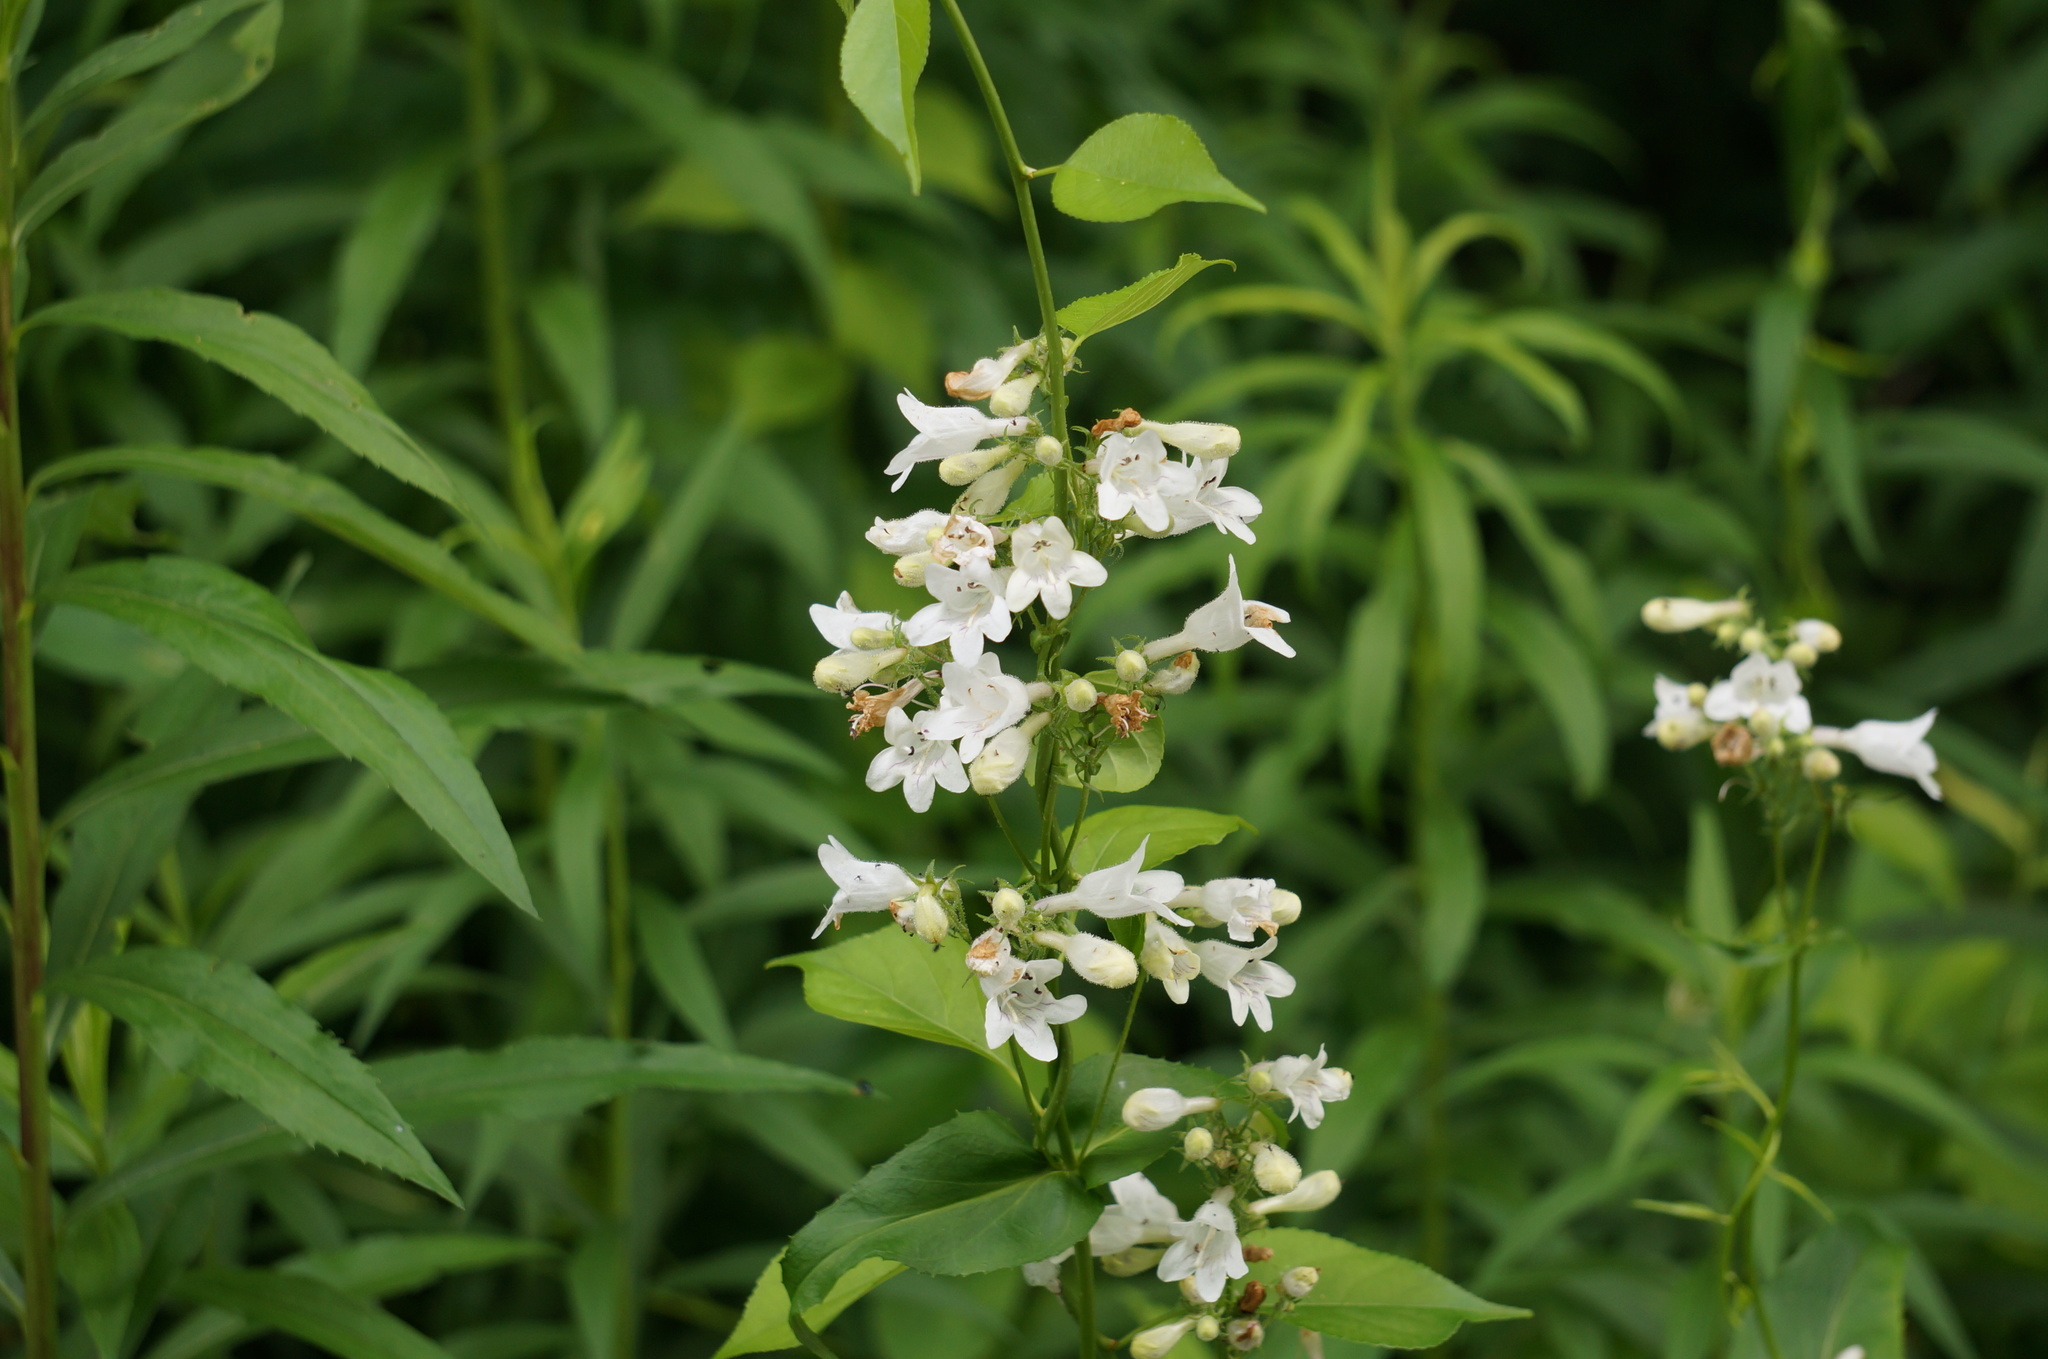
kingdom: Plantae
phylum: Tracheophyta
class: Magnoliopsida
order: Lamiales
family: Plantaginaceae
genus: Penstemon
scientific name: Penstemon digitalis
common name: Foxglove beardtongue
